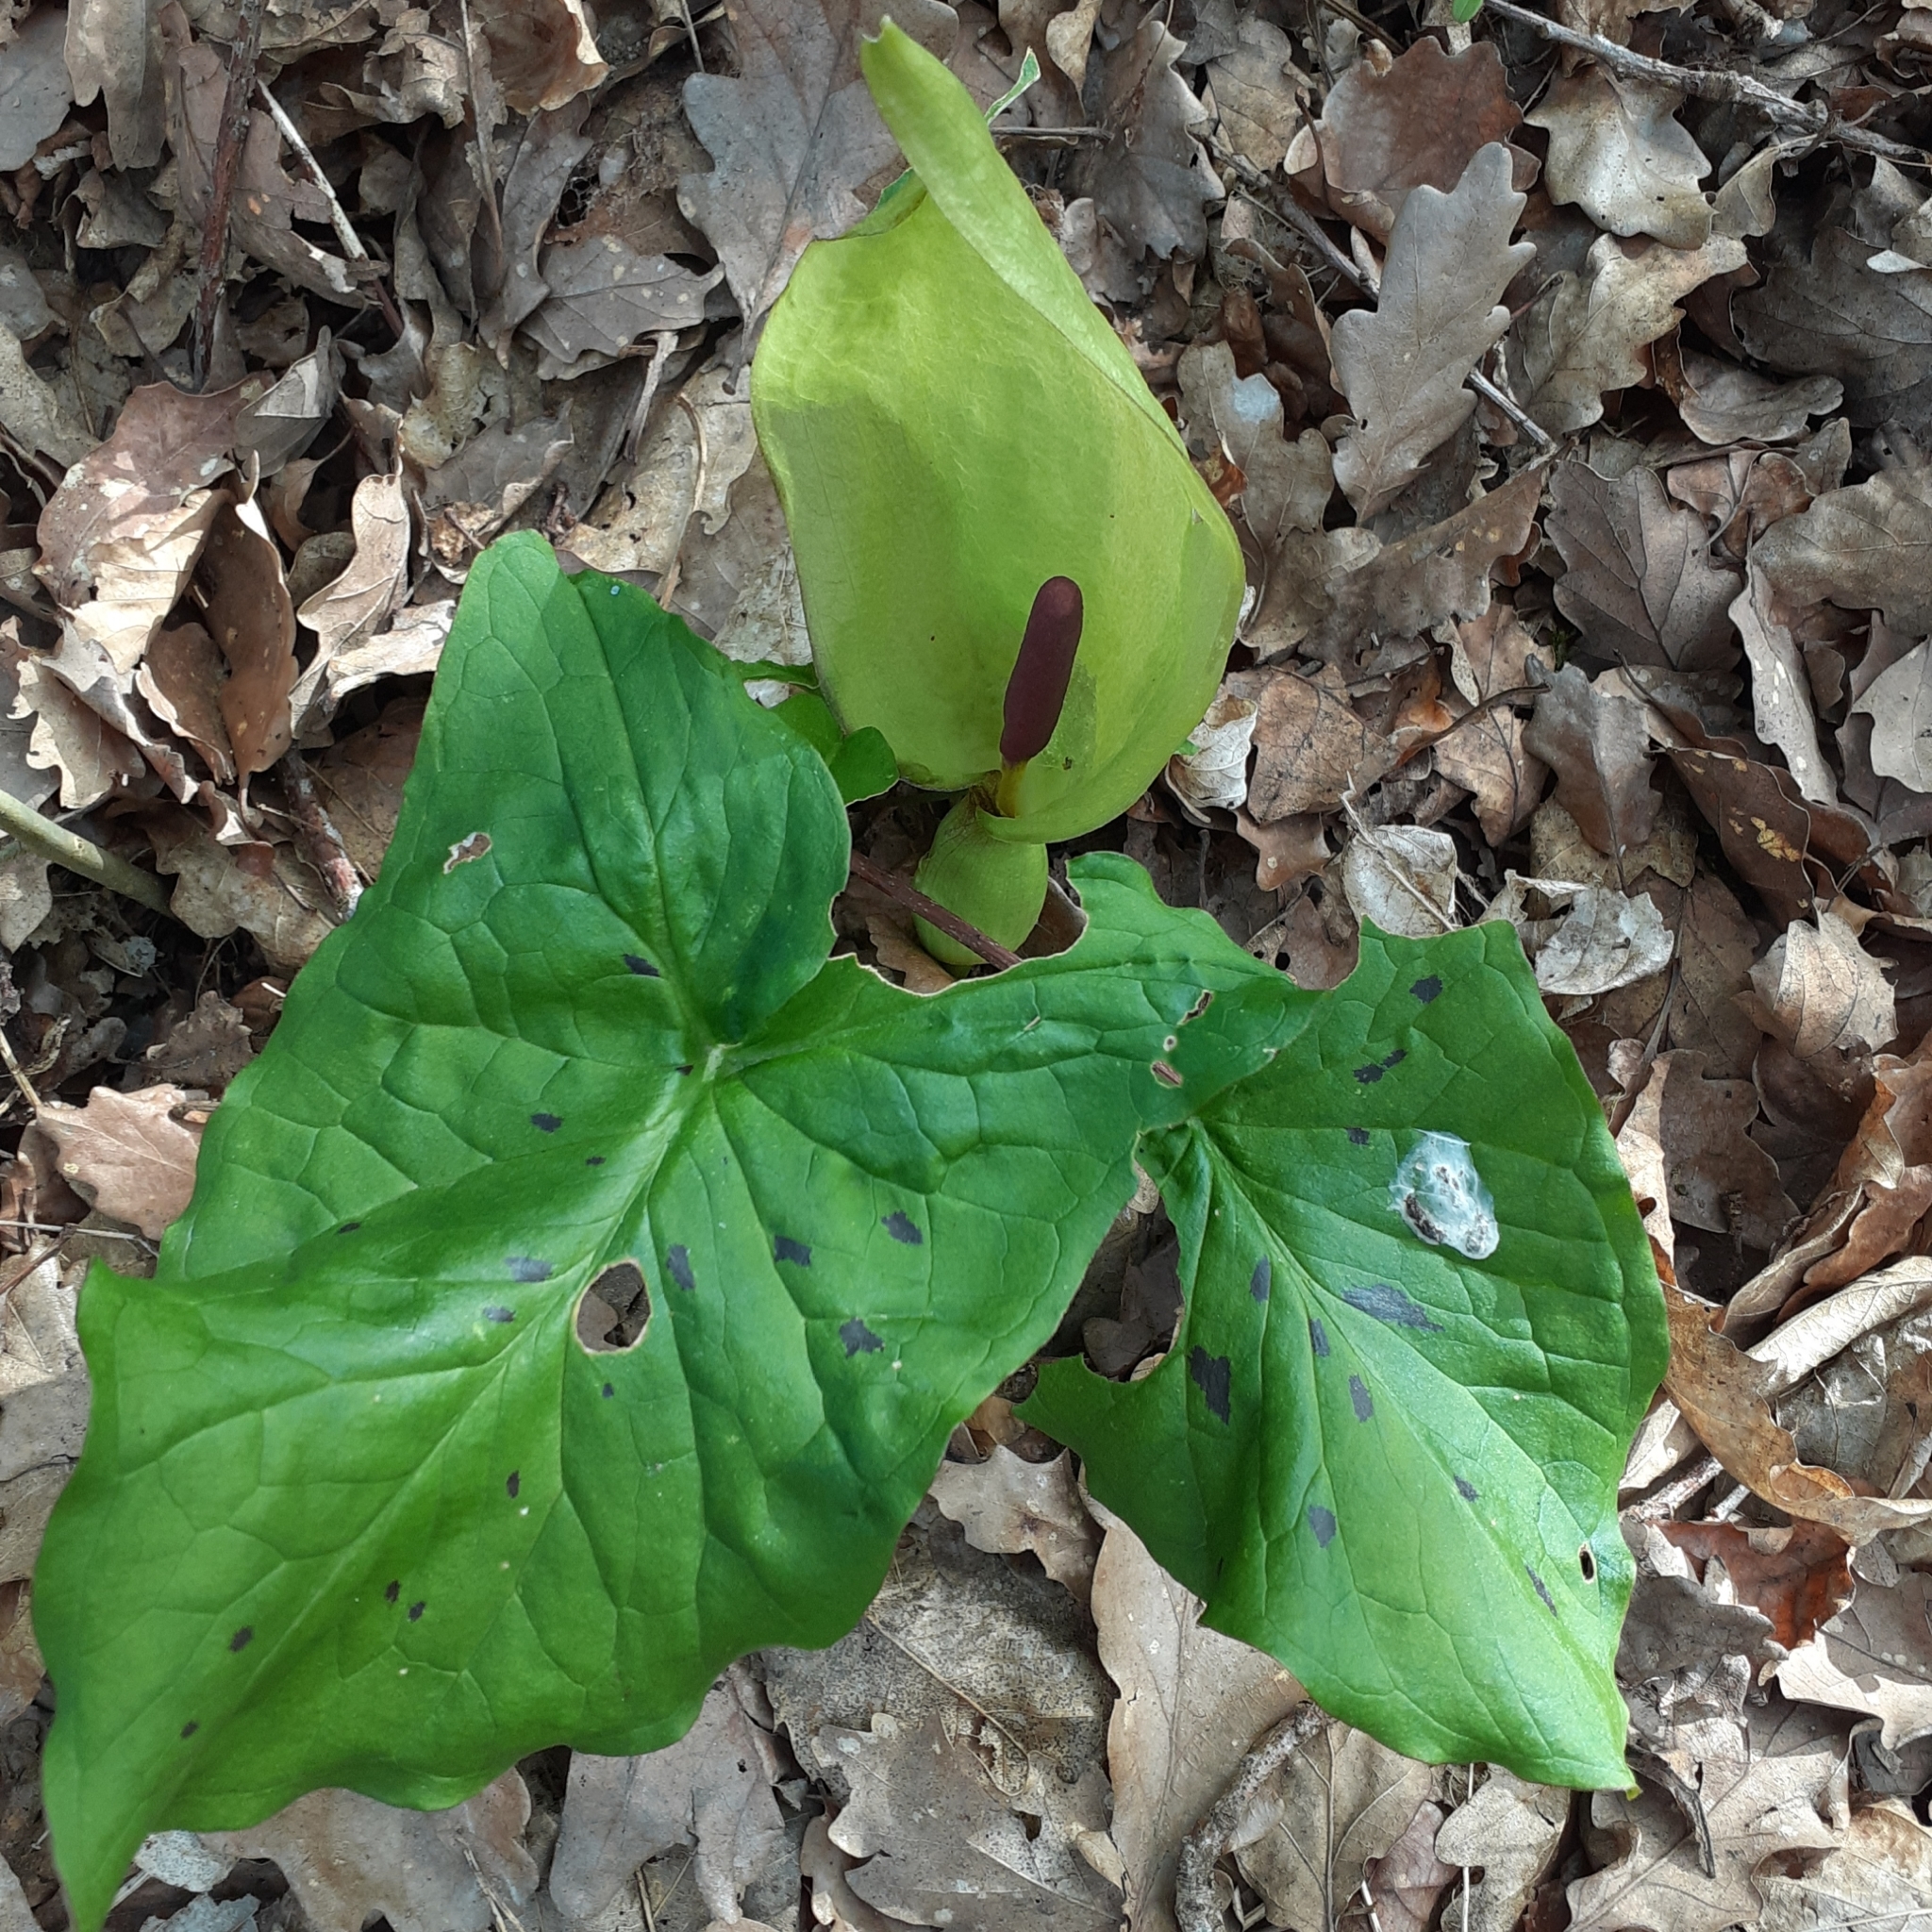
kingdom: Plantae
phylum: Tracheophyta
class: Liliopsida
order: Alismatales
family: Araceae
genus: Arum
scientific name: Arum maculatum
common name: Lords-and-ladies
